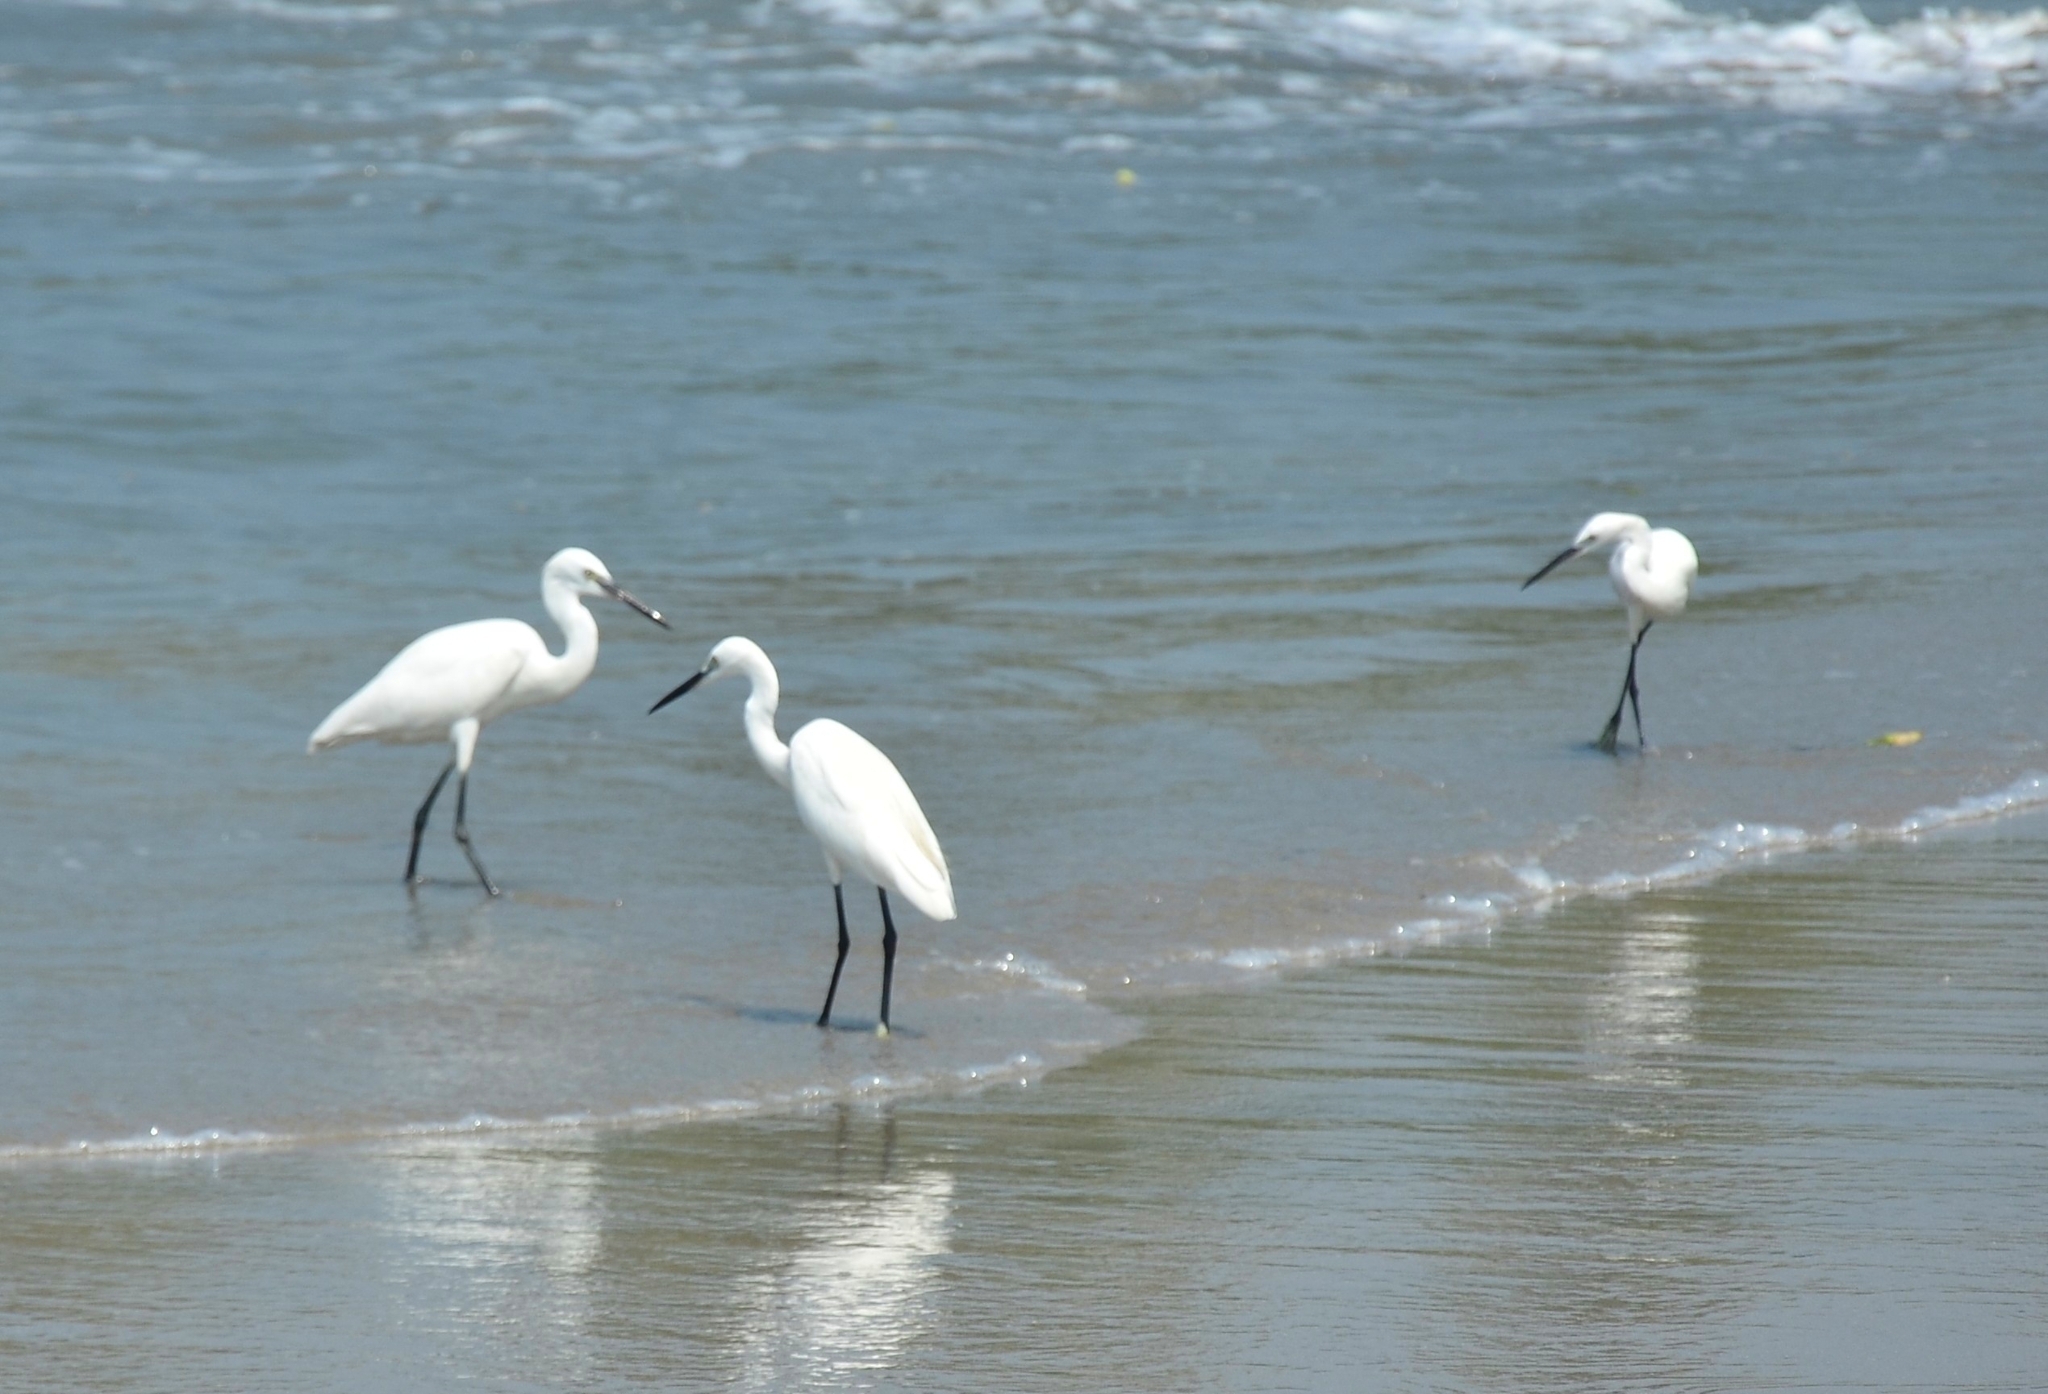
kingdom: Animalia
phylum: Chordata
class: Aves
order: Pelecaniformes
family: Ardeidae
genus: Egretta
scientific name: Egretta garzetta
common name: Little egret
